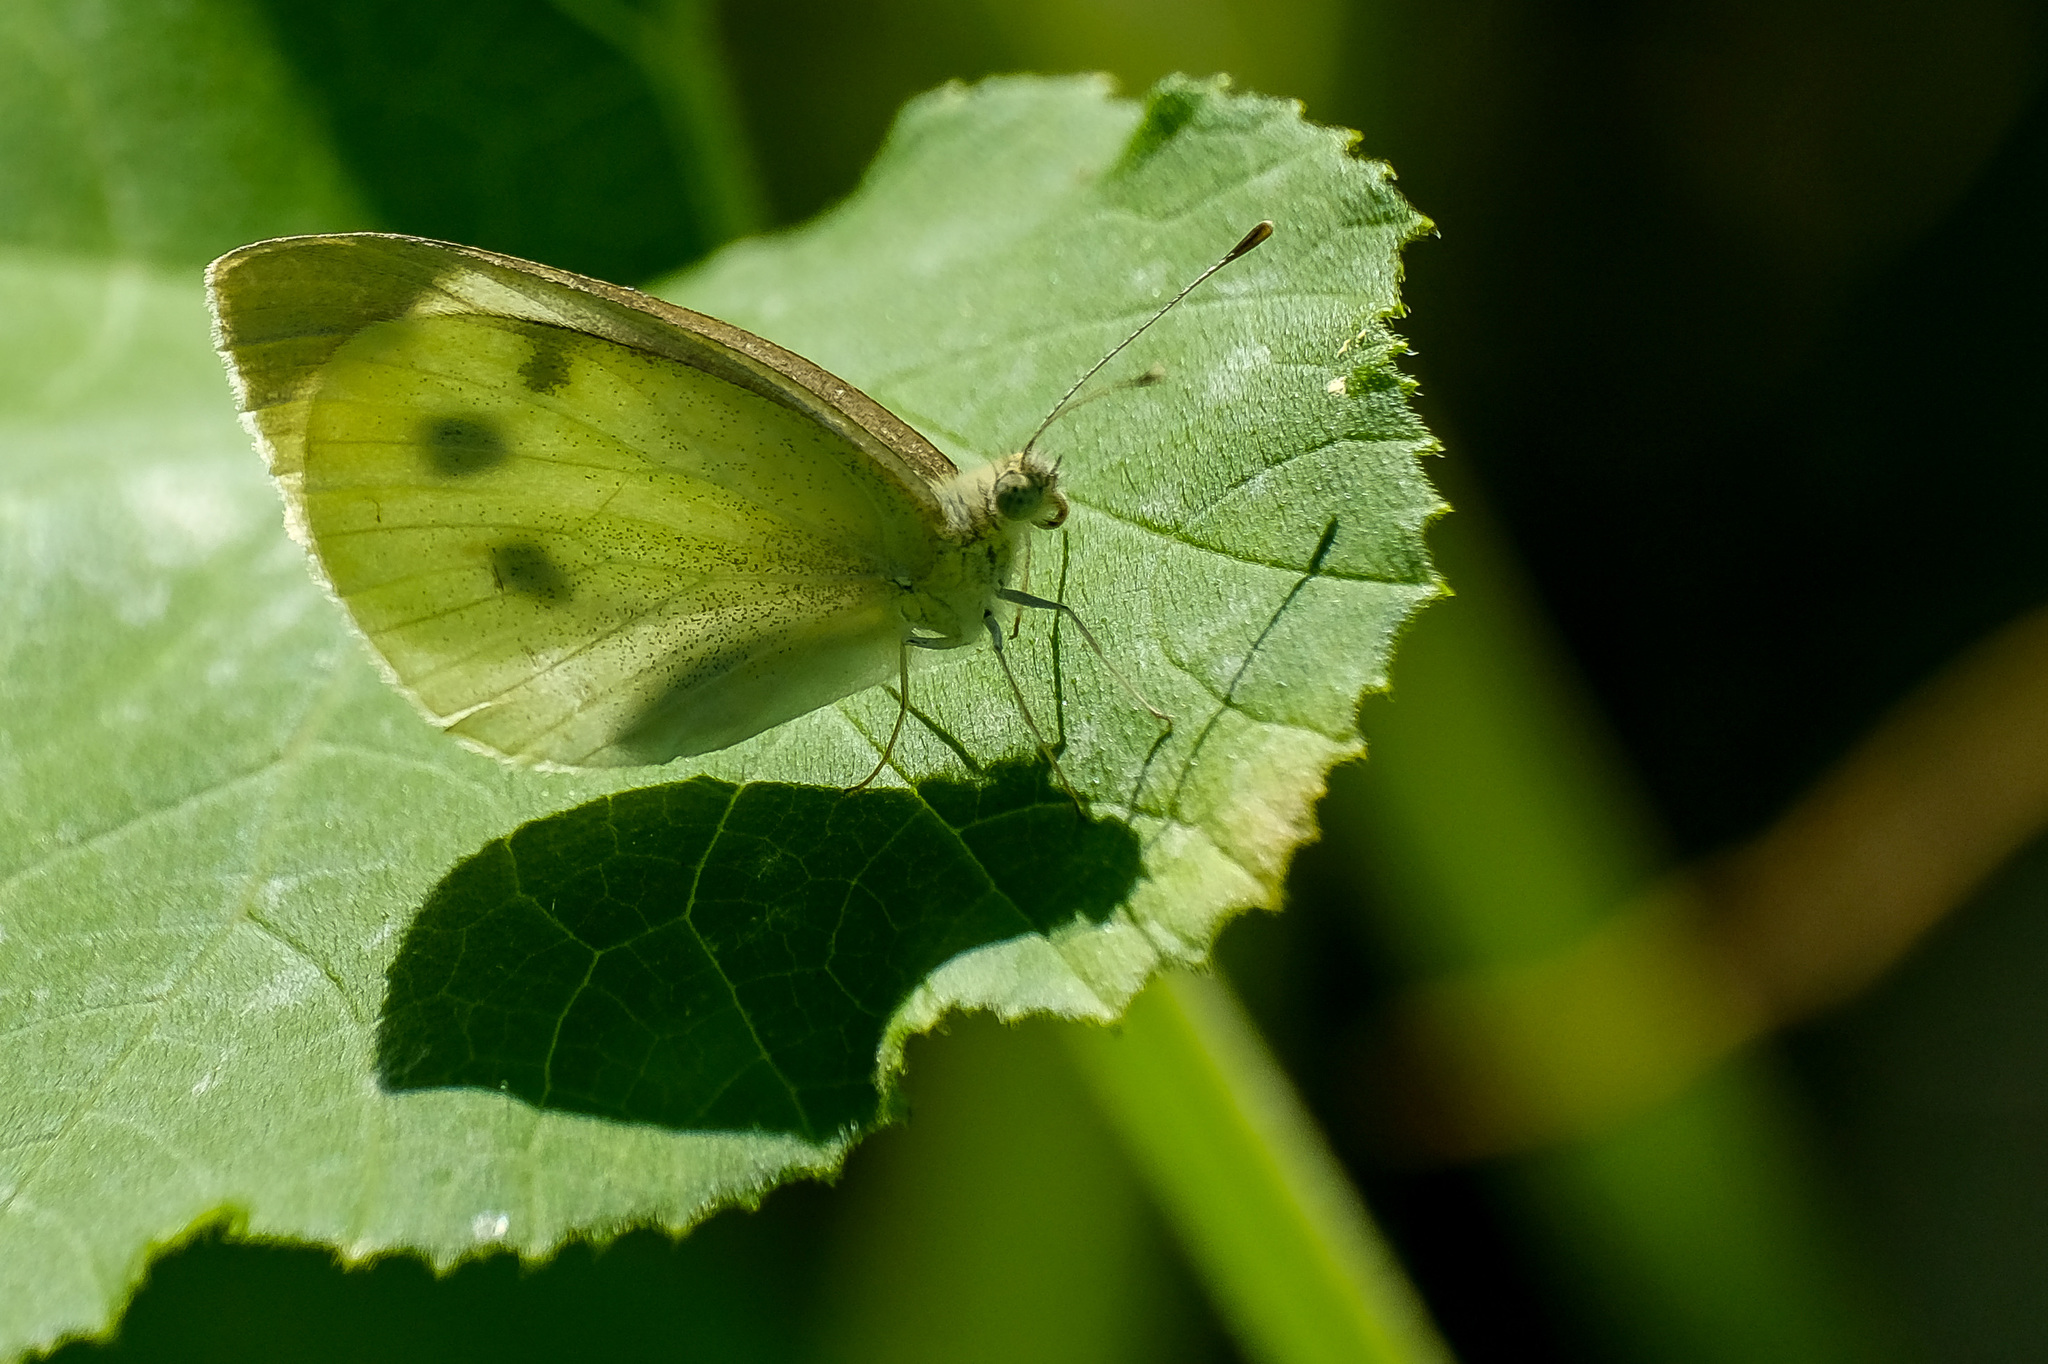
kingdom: Animalia
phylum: Arthropoda
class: Insecta
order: Lepidoptera
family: Pieridae
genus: Pieris
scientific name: Pieris rapae
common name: Small white
